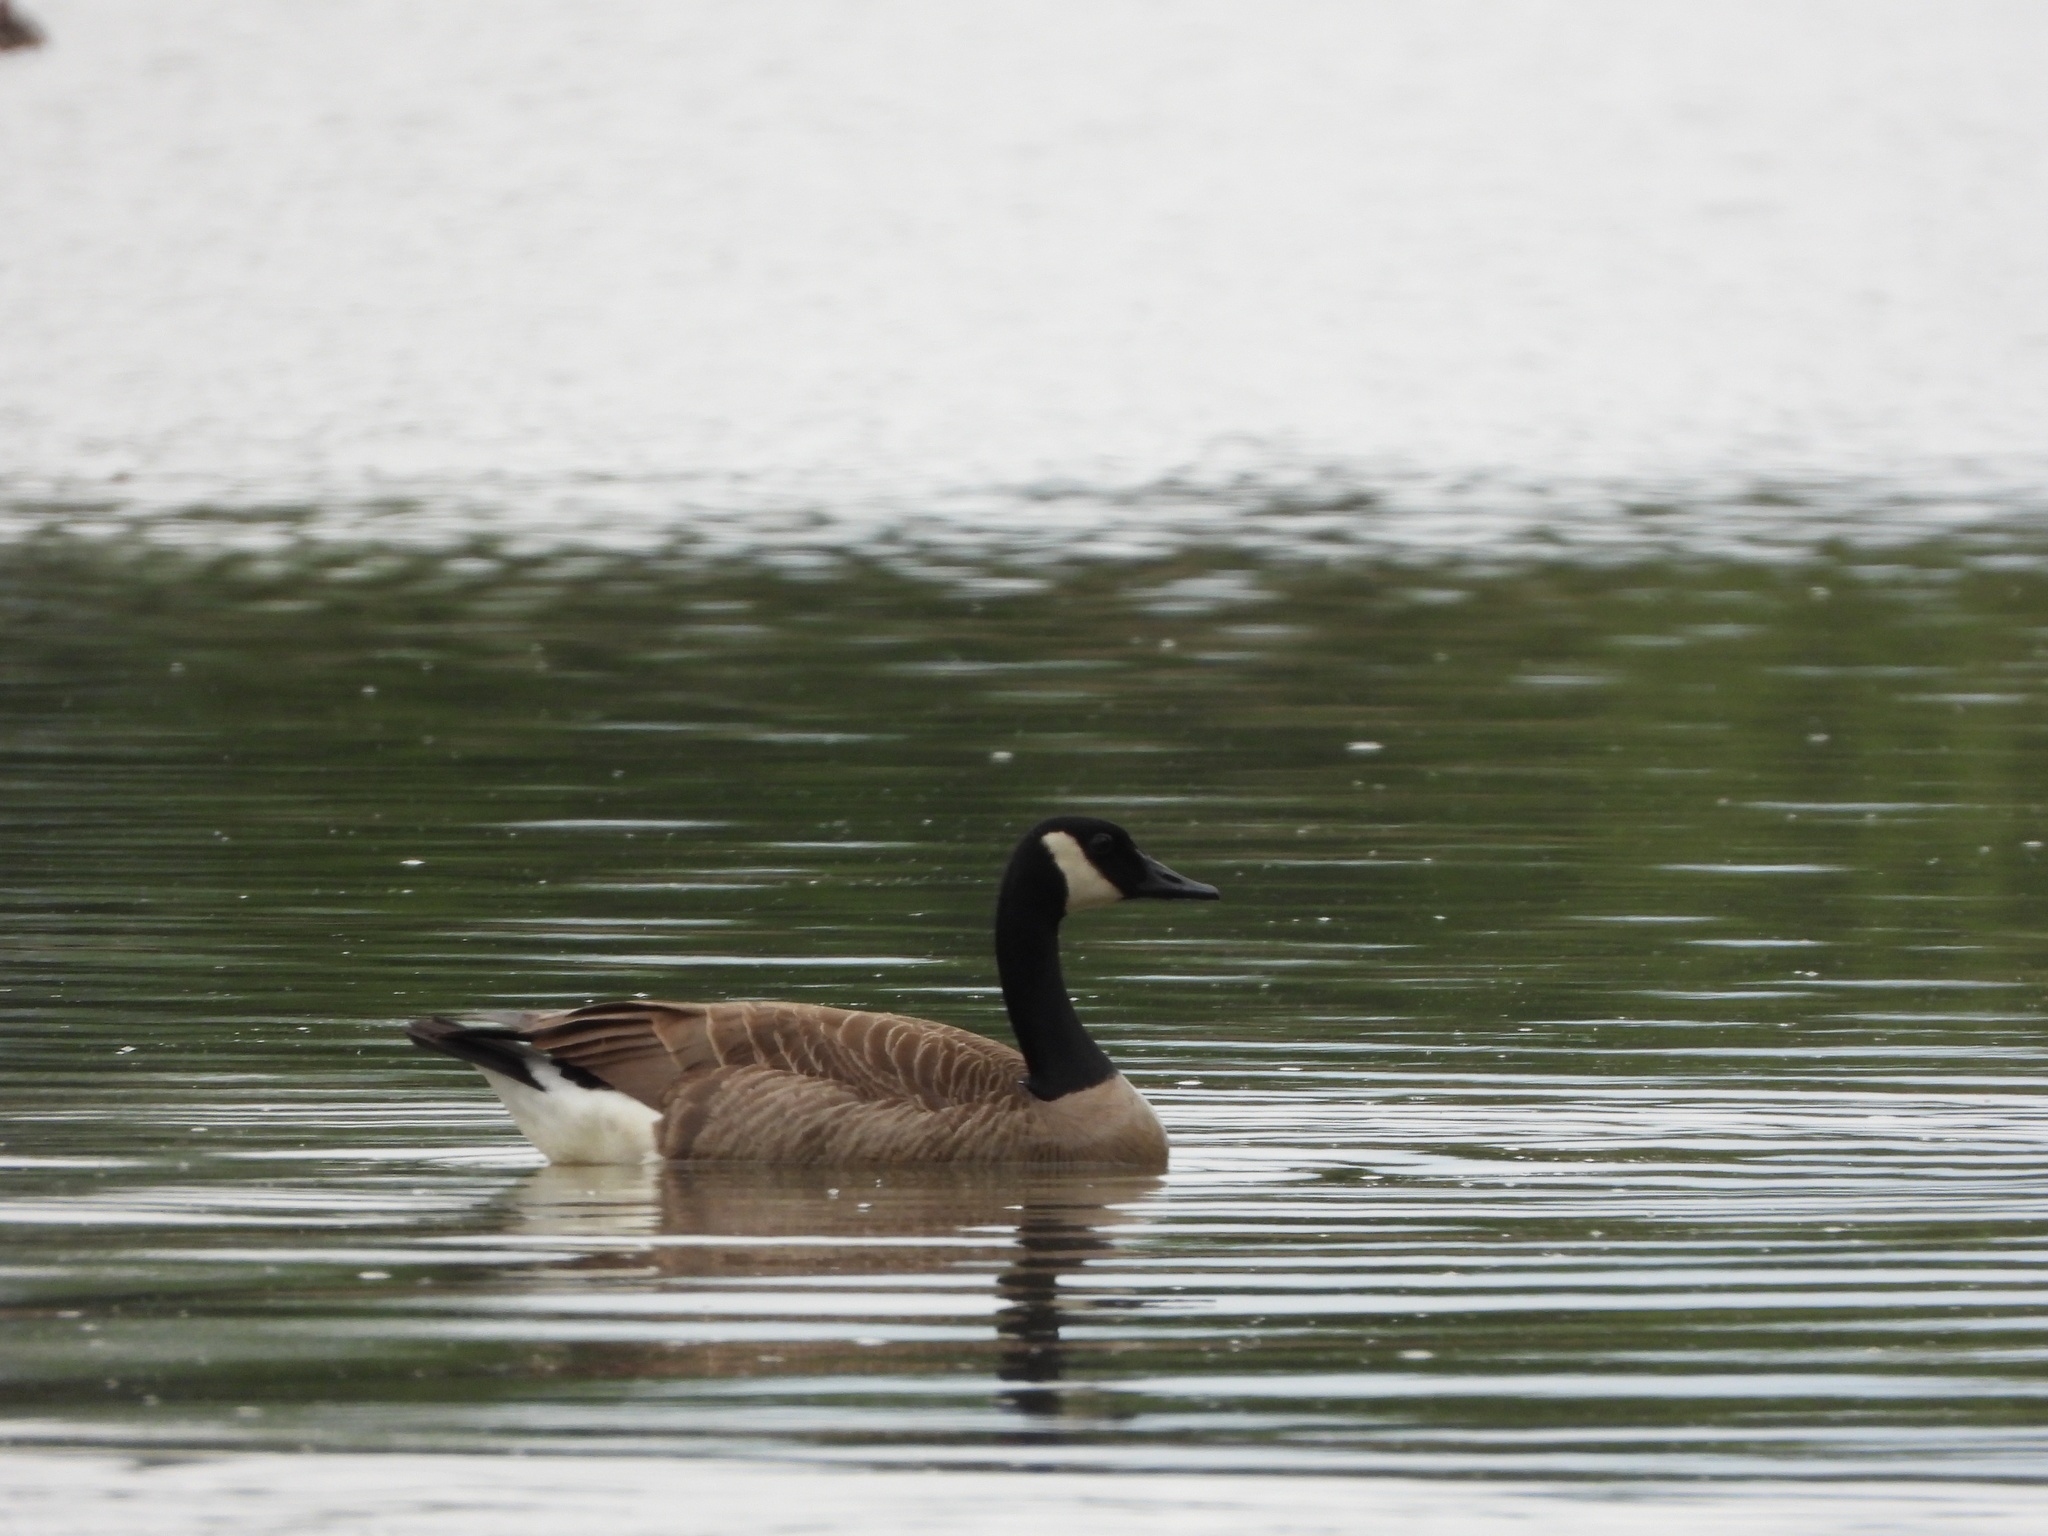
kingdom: Animalia
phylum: Chordata
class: Aves
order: Anseriformes
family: Anatidae
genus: Branta
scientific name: Branta canadensis
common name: Canada goose
